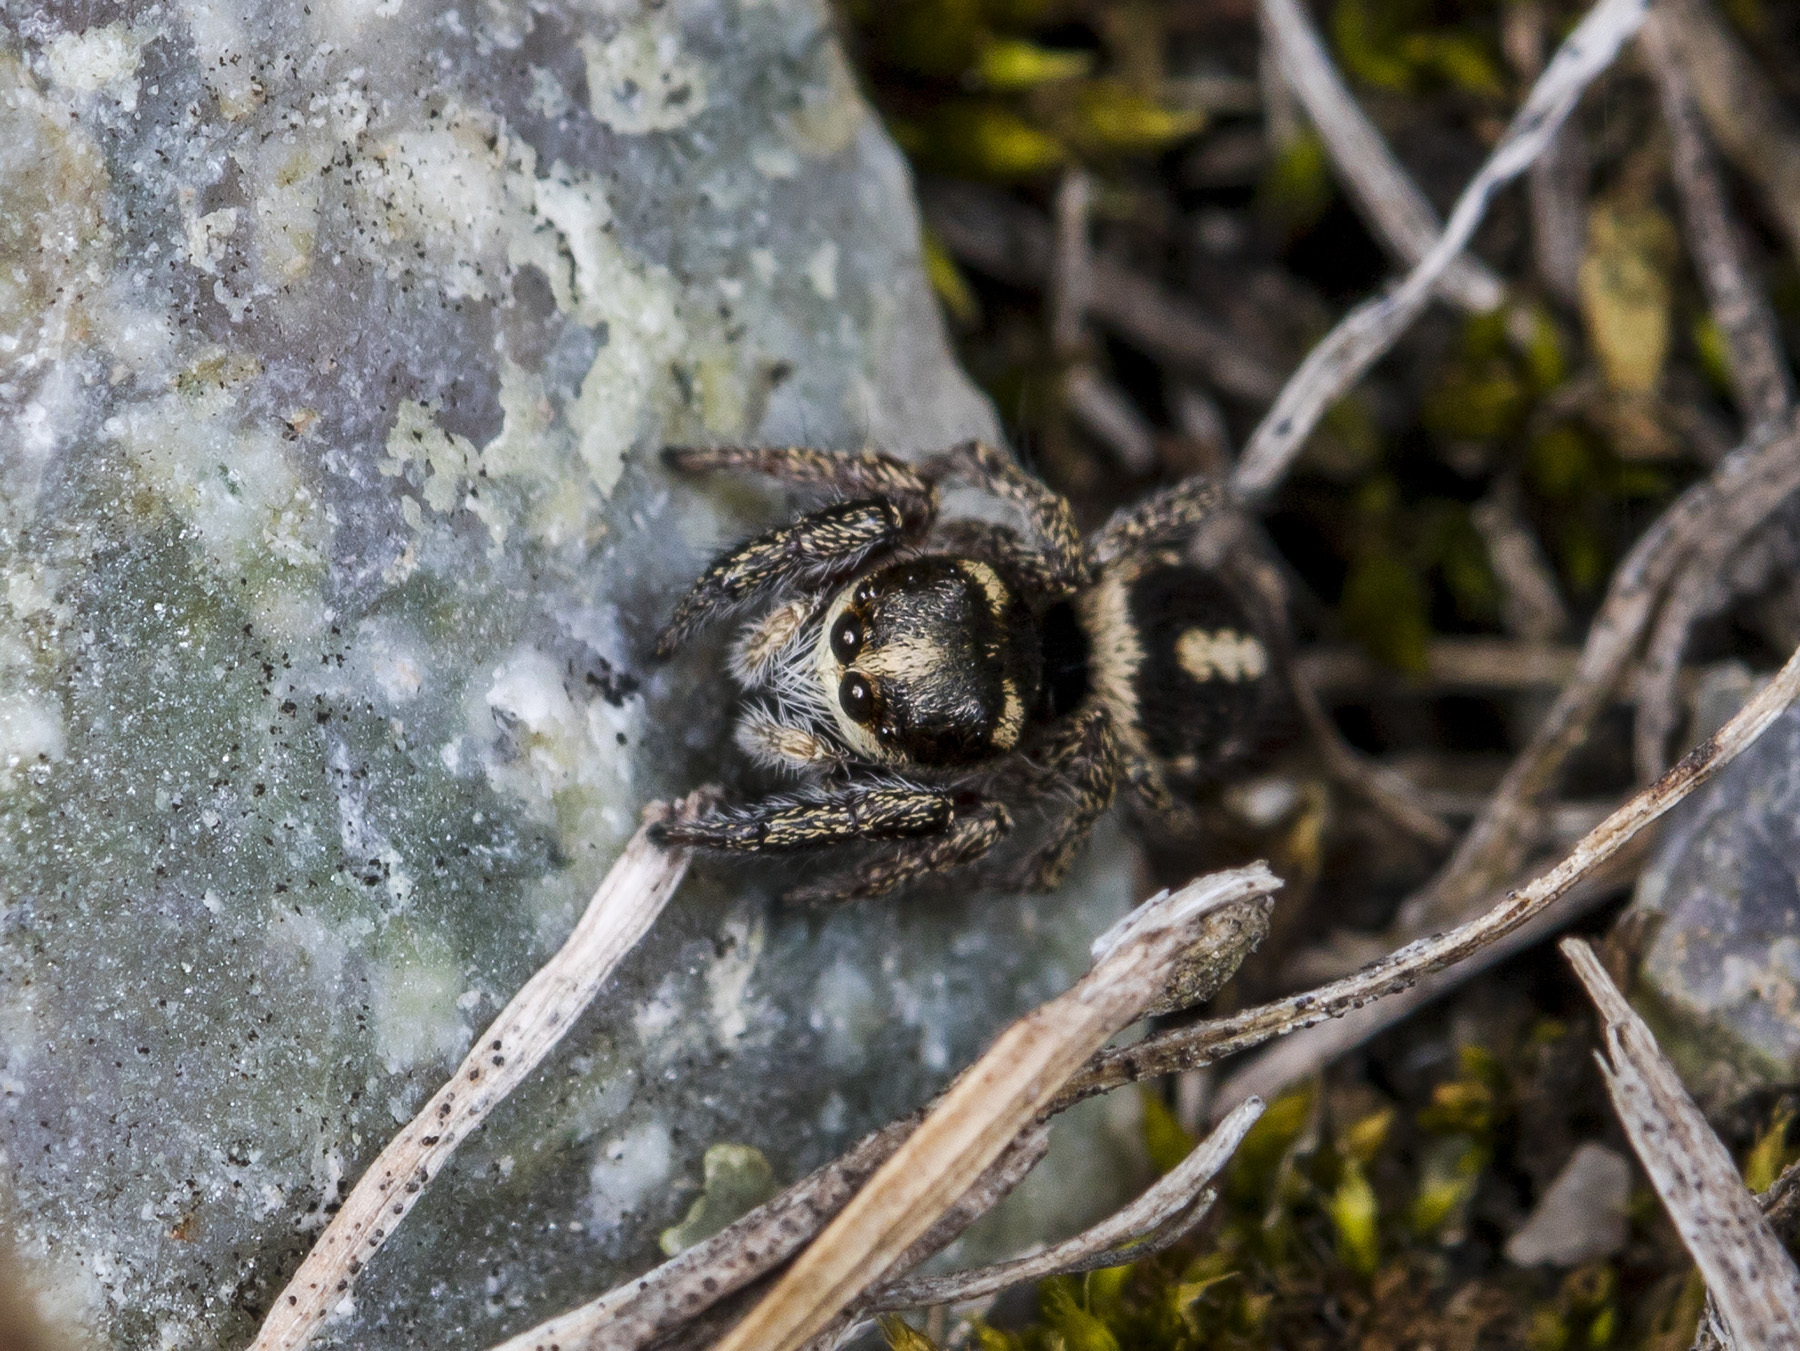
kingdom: Animalia
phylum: Arthropoda
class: Arachnida
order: Araneae
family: Salticidae
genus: Pellenes
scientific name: Pellenes allegrii
